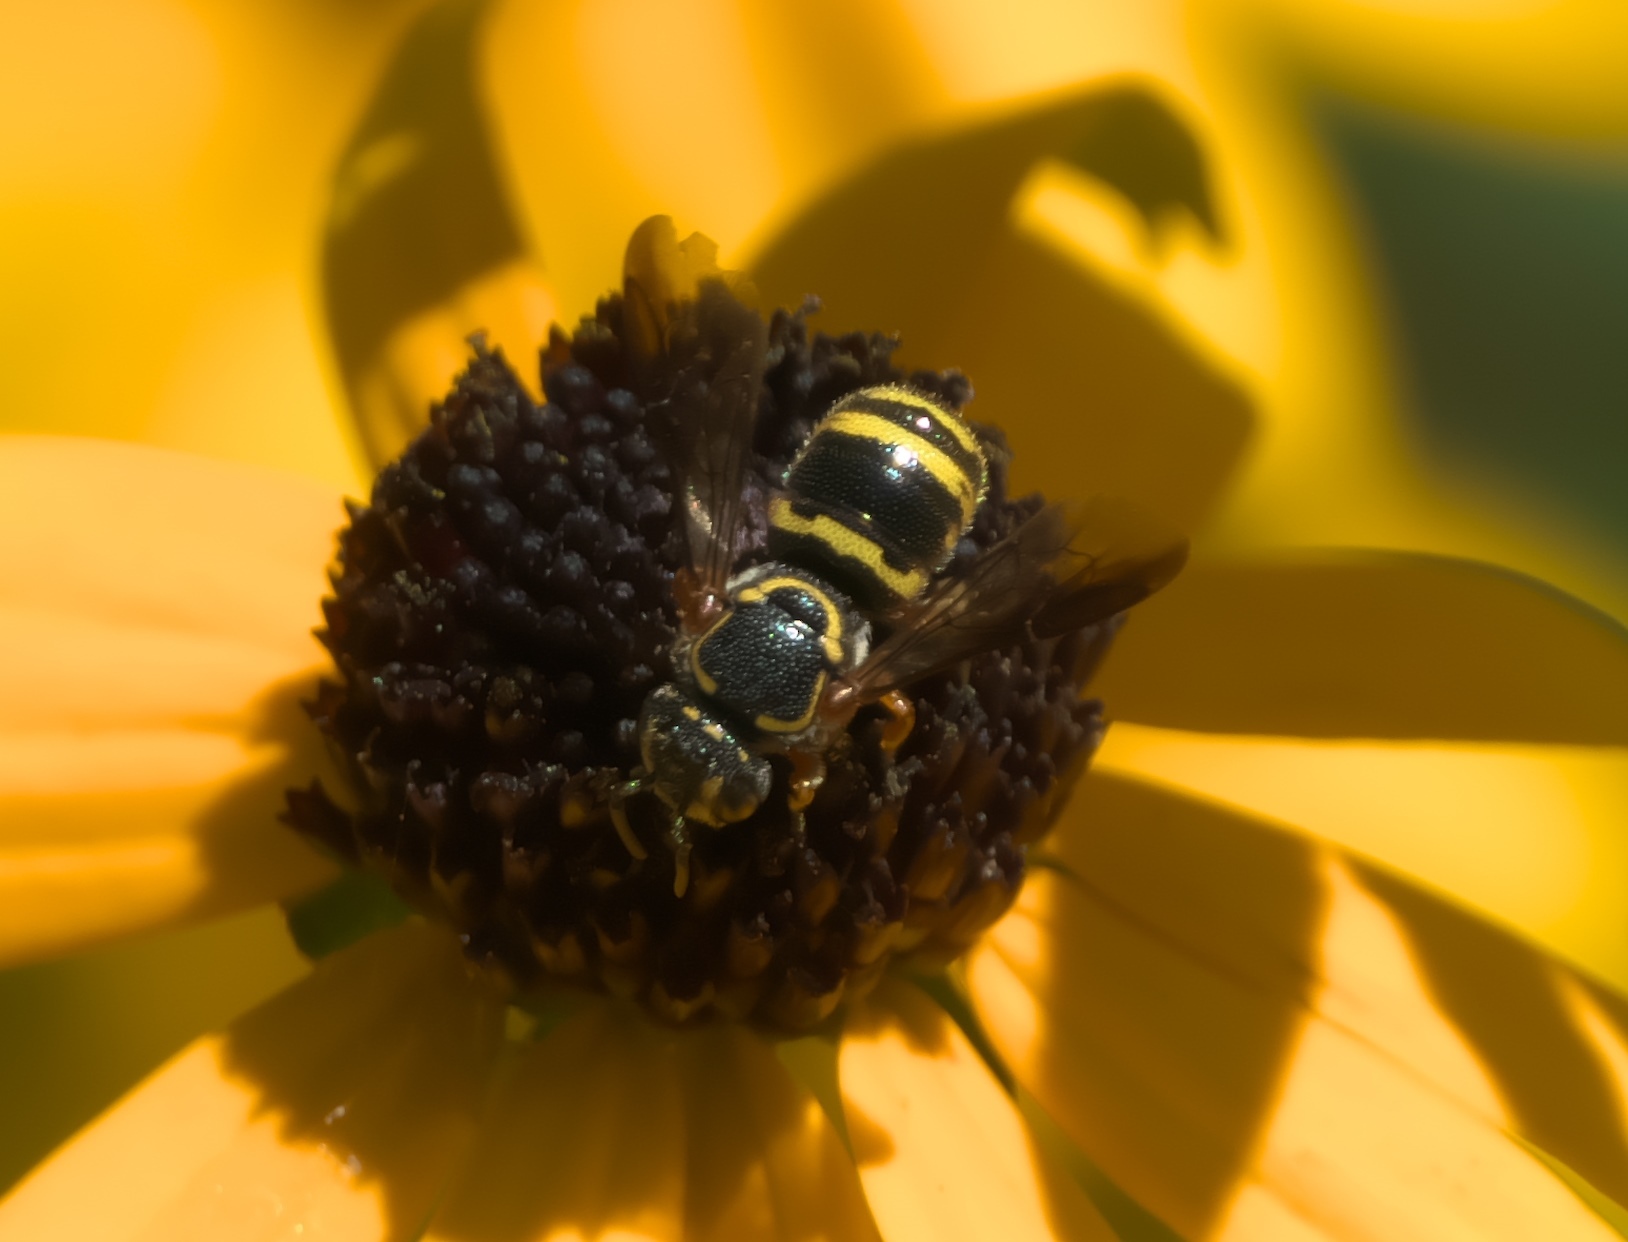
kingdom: Animalia
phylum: Arthropoda
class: Insecta
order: Hymenoptera
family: Megachilidae
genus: Stelis
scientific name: Stelis costalis
